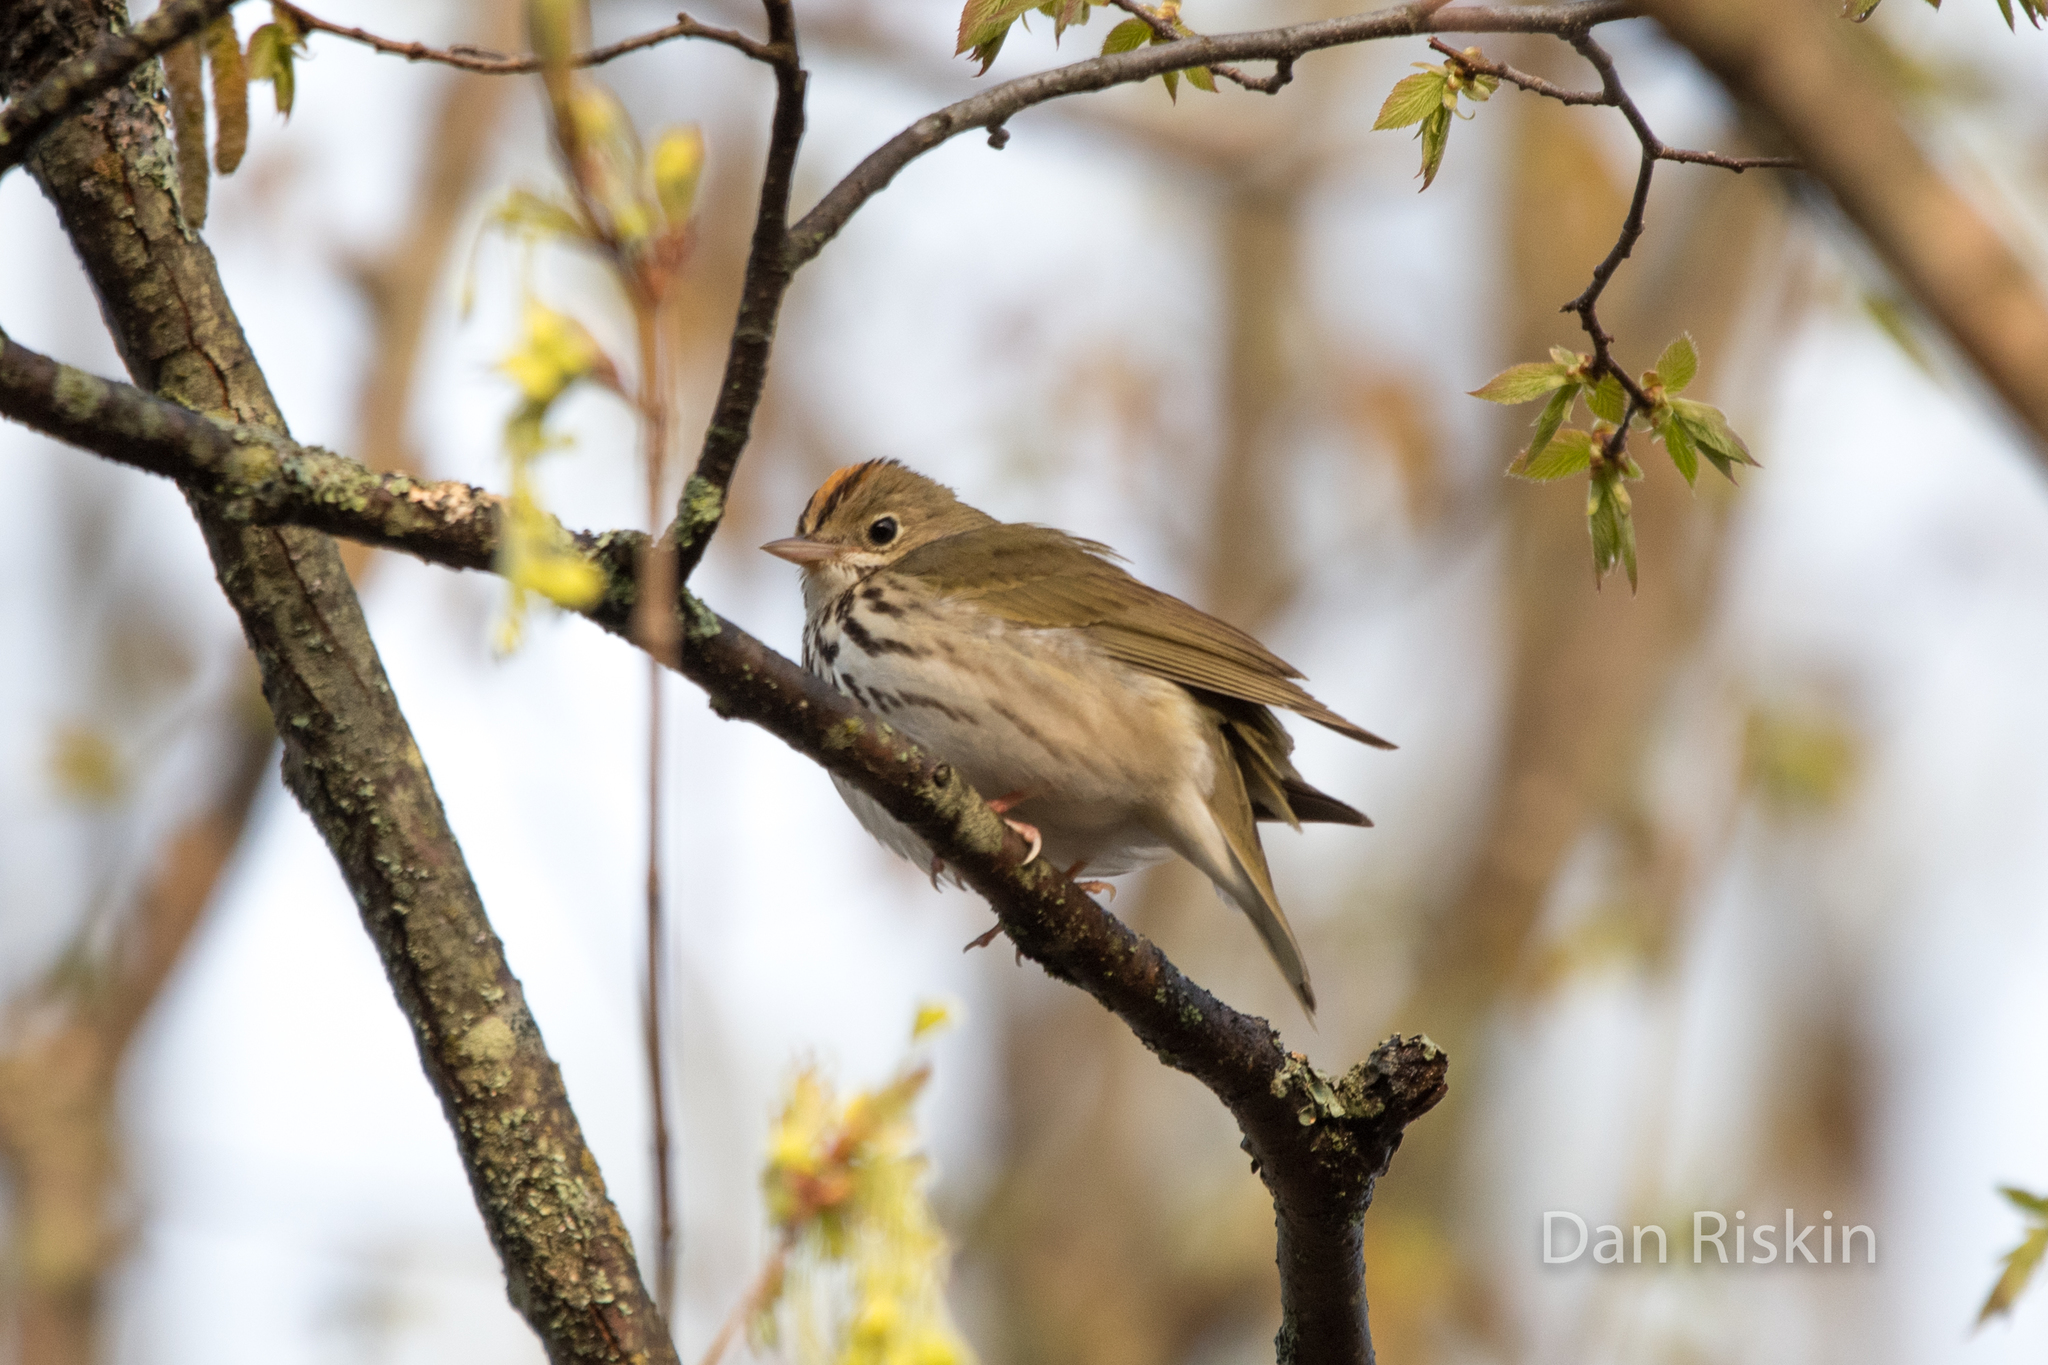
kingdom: Animalia
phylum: Chordata
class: Aves
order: Passeriformes
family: Parulidae
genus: Seiurus
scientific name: Seiurus aurocapilla
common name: Ovenbird
